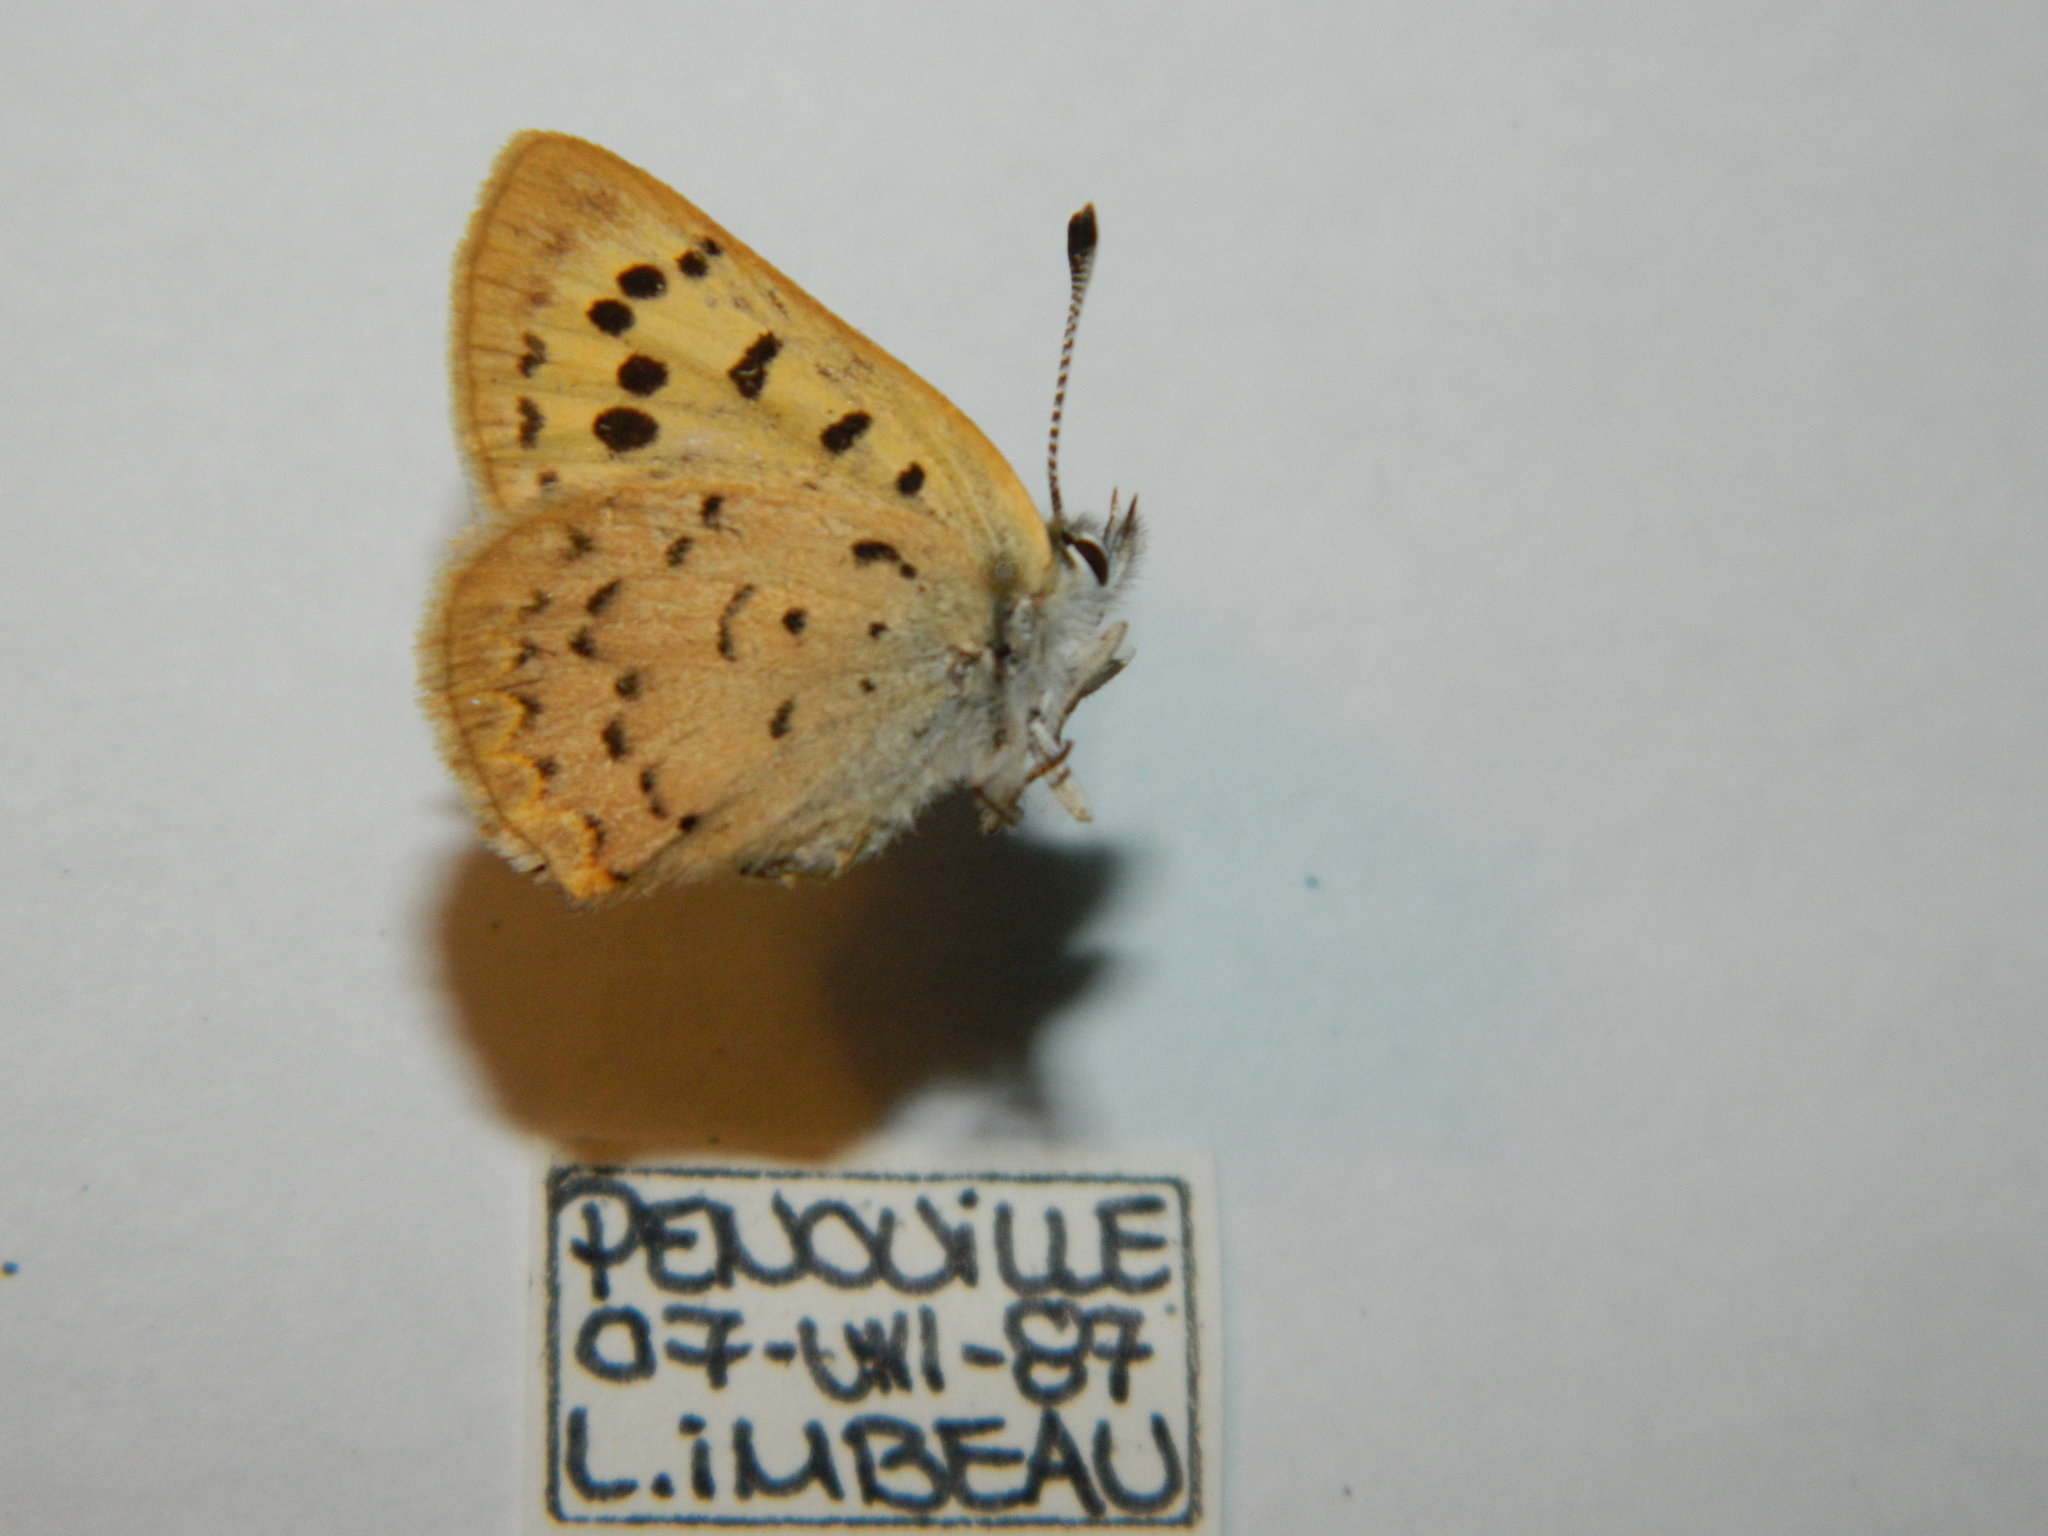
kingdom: Animalia
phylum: Arthropoda
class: Insecta
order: Lepidoptera
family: Lycaenidae
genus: Tharsalea
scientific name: Tharsalea dospassosi
